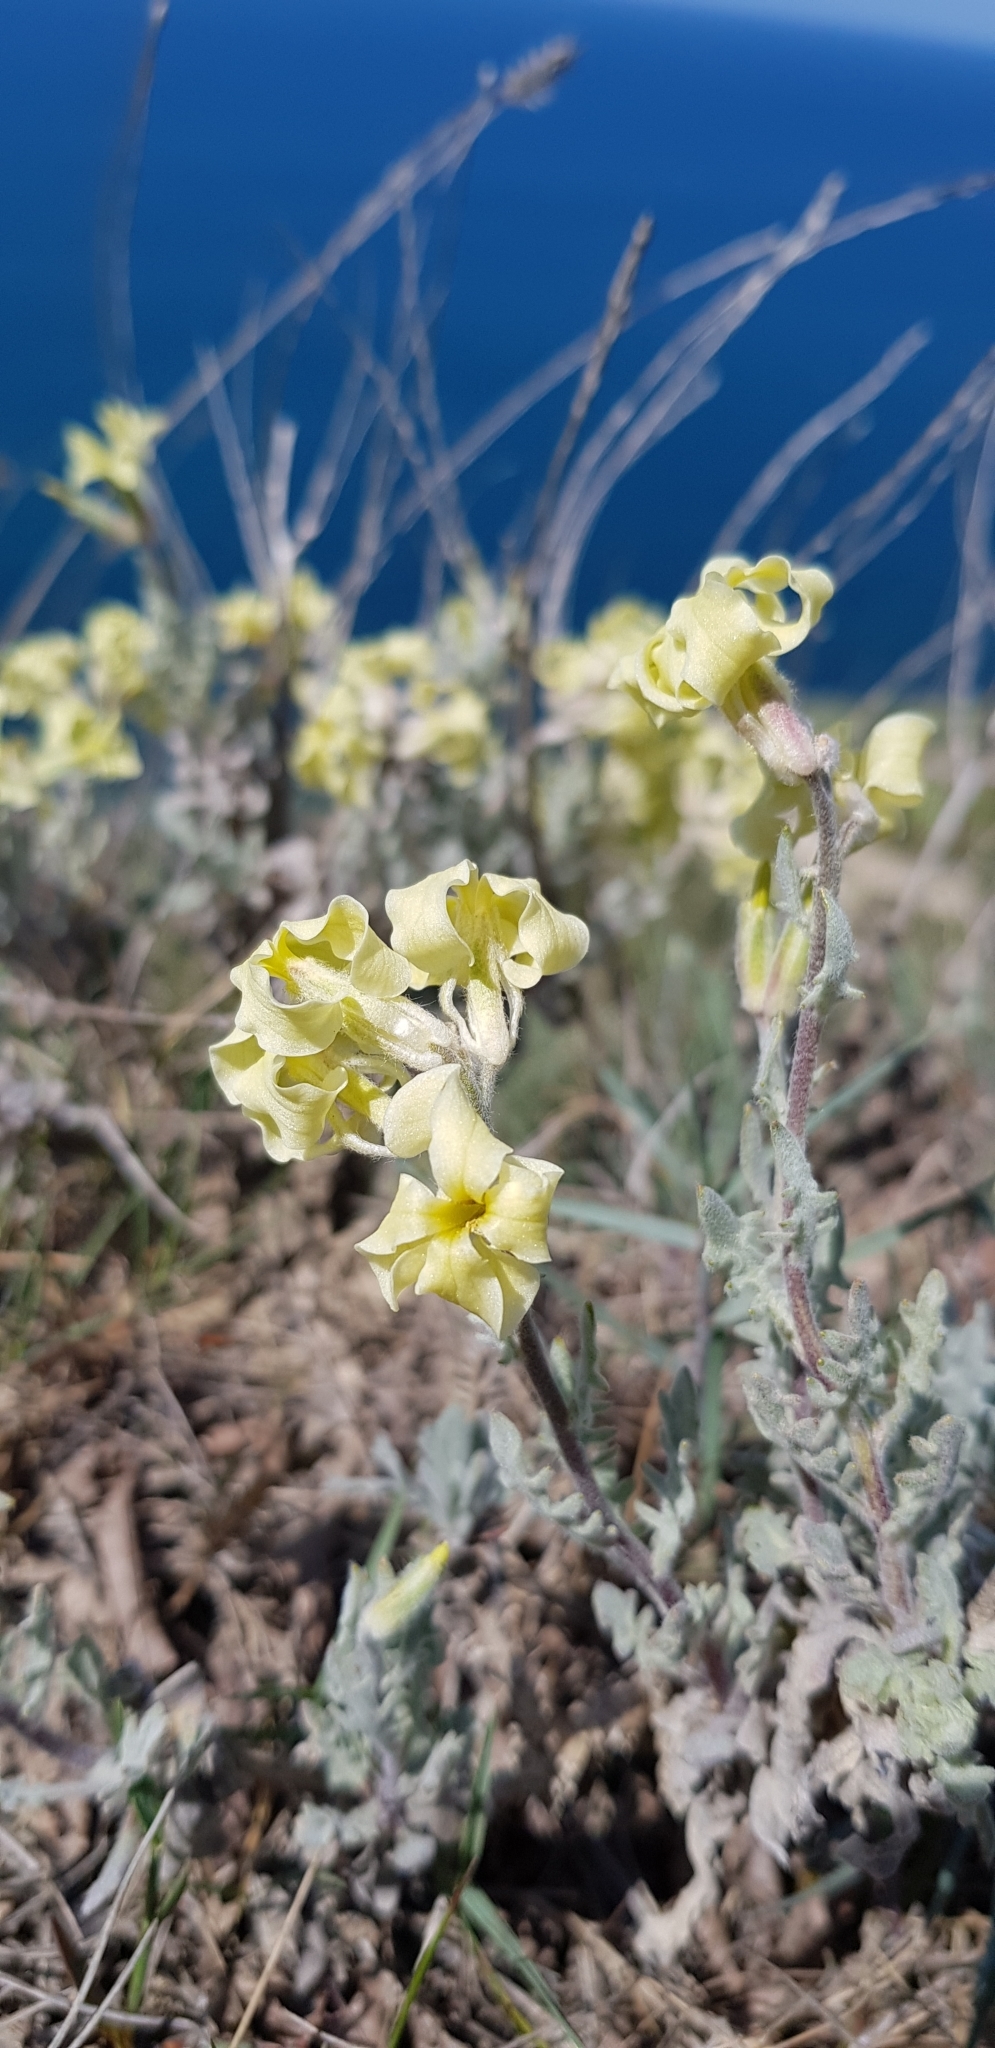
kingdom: Plantae
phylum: Tracheophyta
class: Magnoliopsida
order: Brassicales
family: Brassicaceae
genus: Matthiola
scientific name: Matthiola odoratissima
